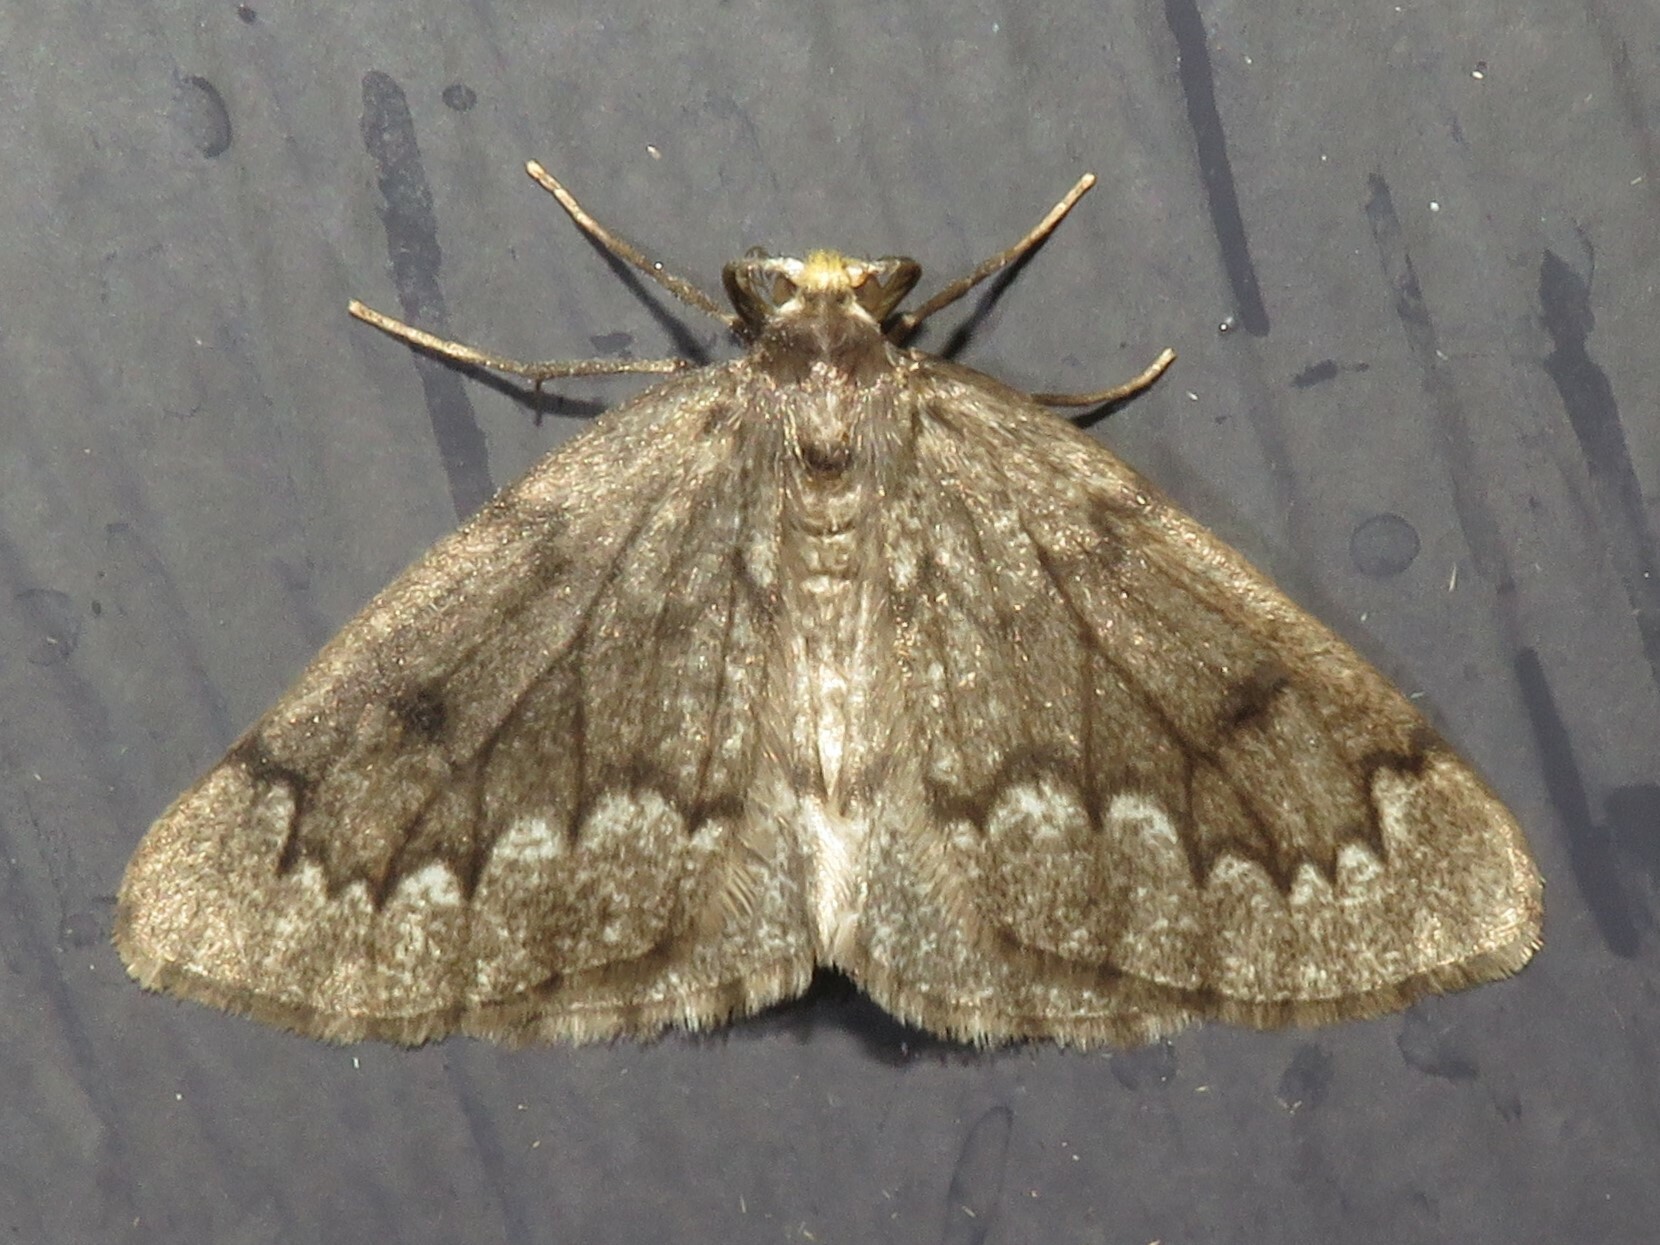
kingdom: Animalia
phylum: Arthropoda
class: Insecta
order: Lepidoptera
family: Geometridae
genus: Nepytia
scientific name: Nepytia canosaria
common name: False hemlock looper
